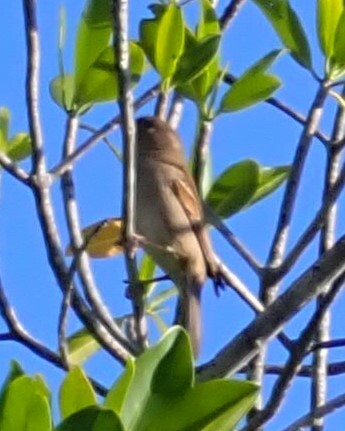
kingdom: Animalia
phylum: Chordata
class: Aves
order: Passeriformes
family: Passeridae
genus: Passer
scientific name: Passer domesticus
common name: House sparrow
